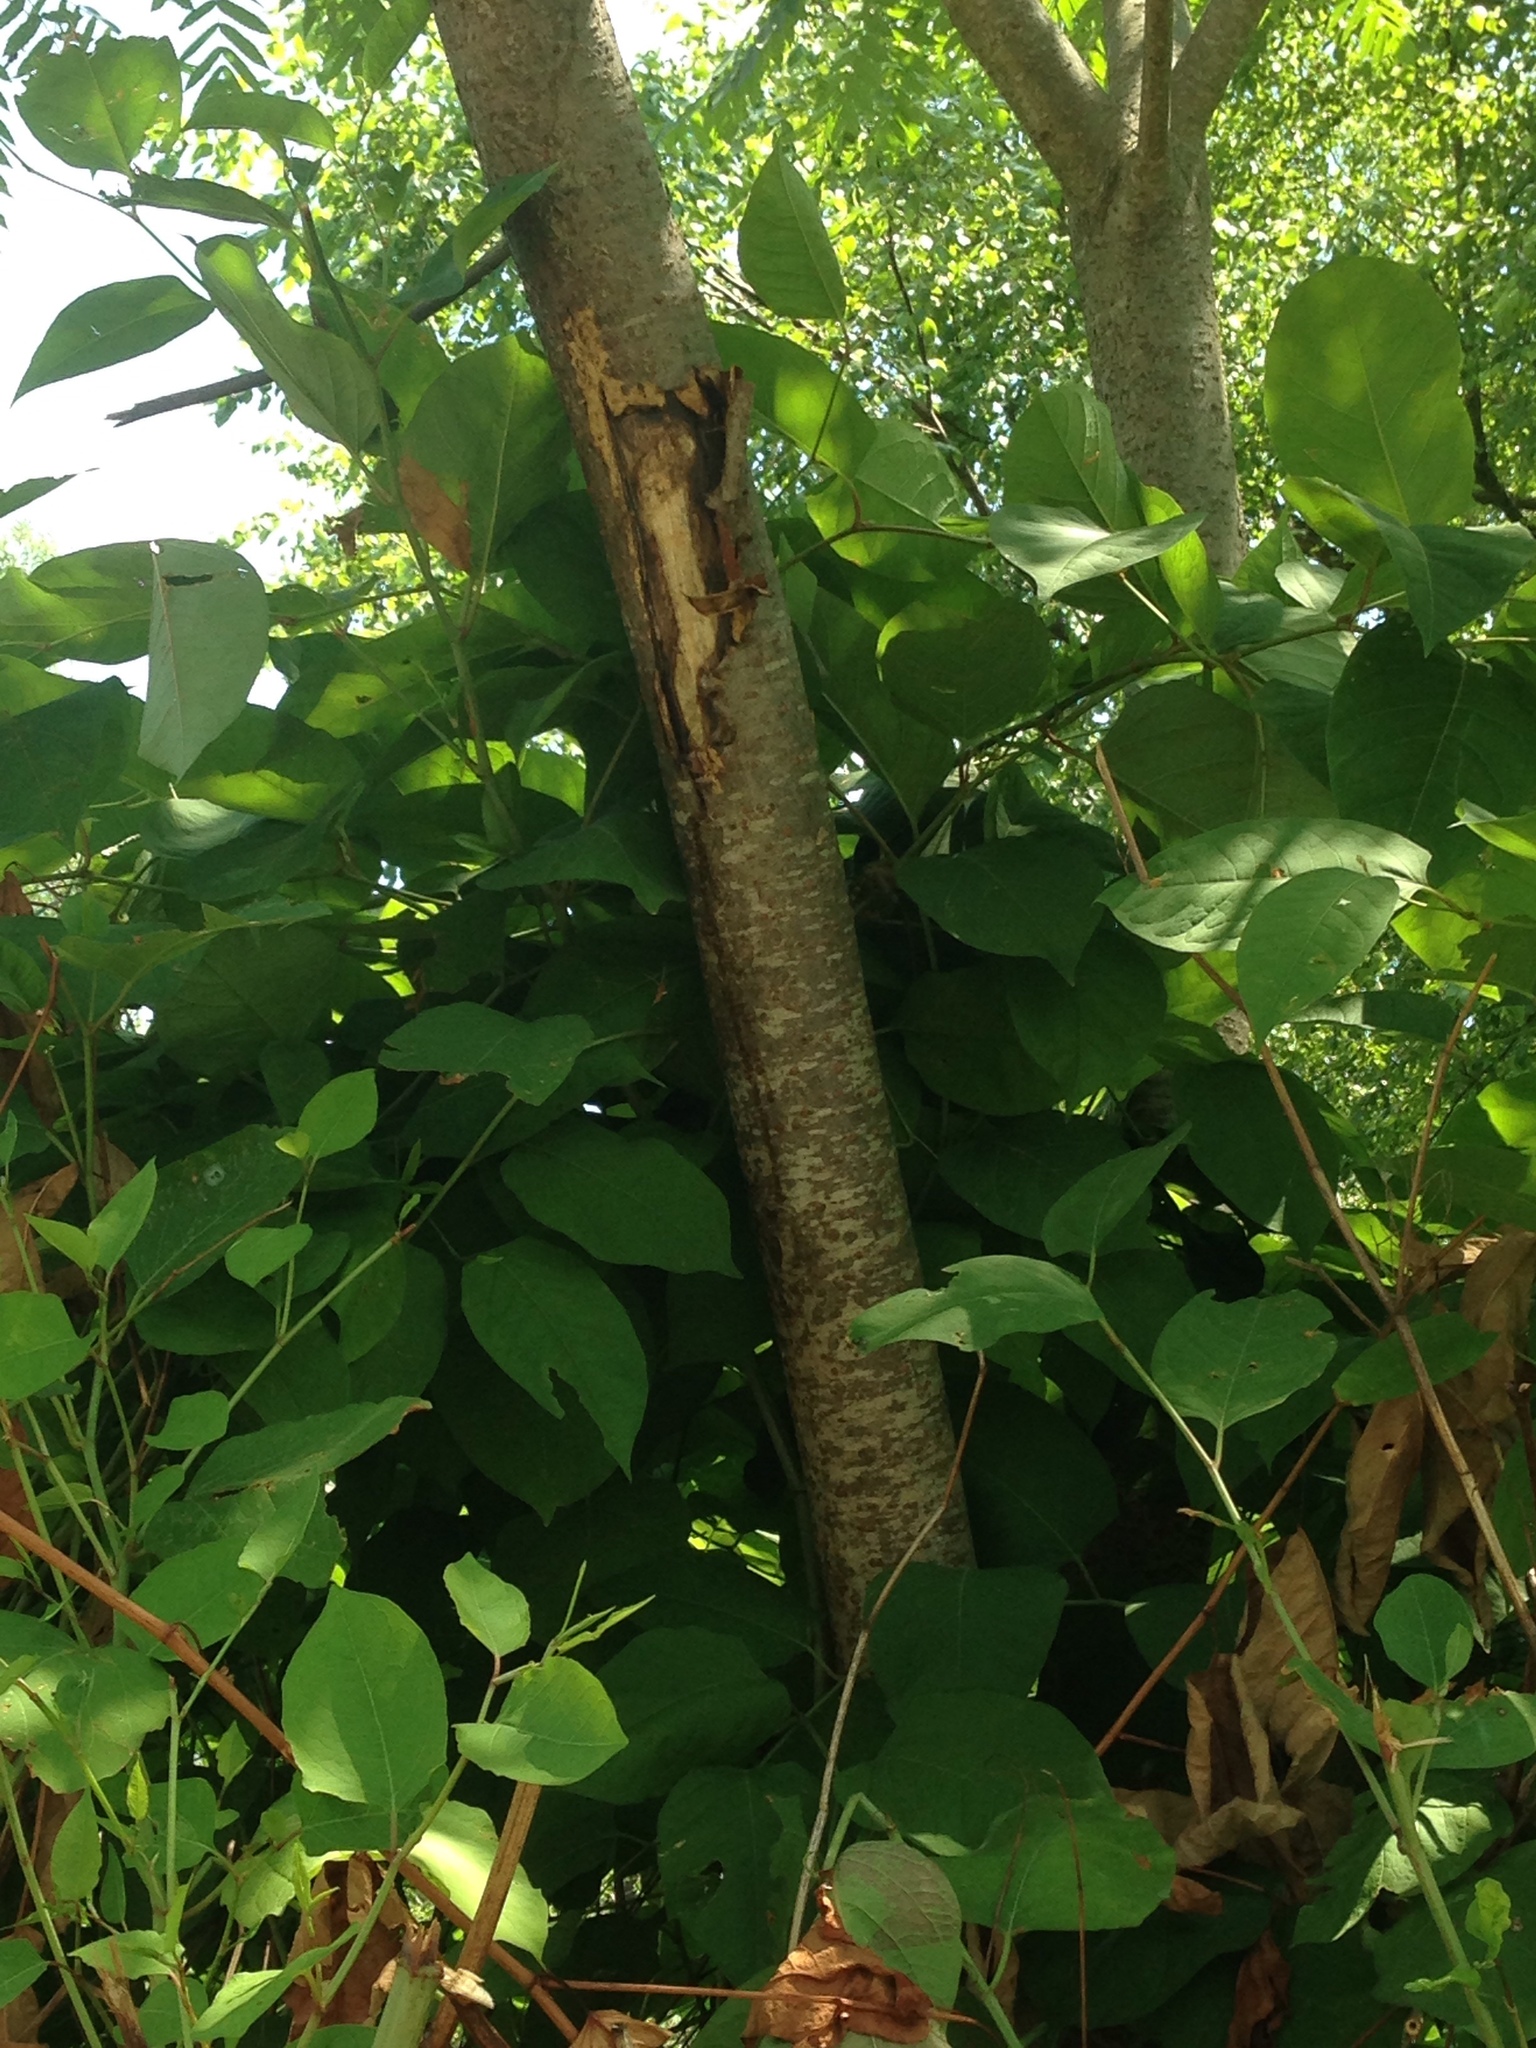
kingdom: Plantae
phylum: Tracheophyta
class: Magnoliopsida
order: Sapindales
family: Simaroubaceae
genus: Ailanthus
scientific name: Ailanthus altissima
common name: Tree-of-heaven
